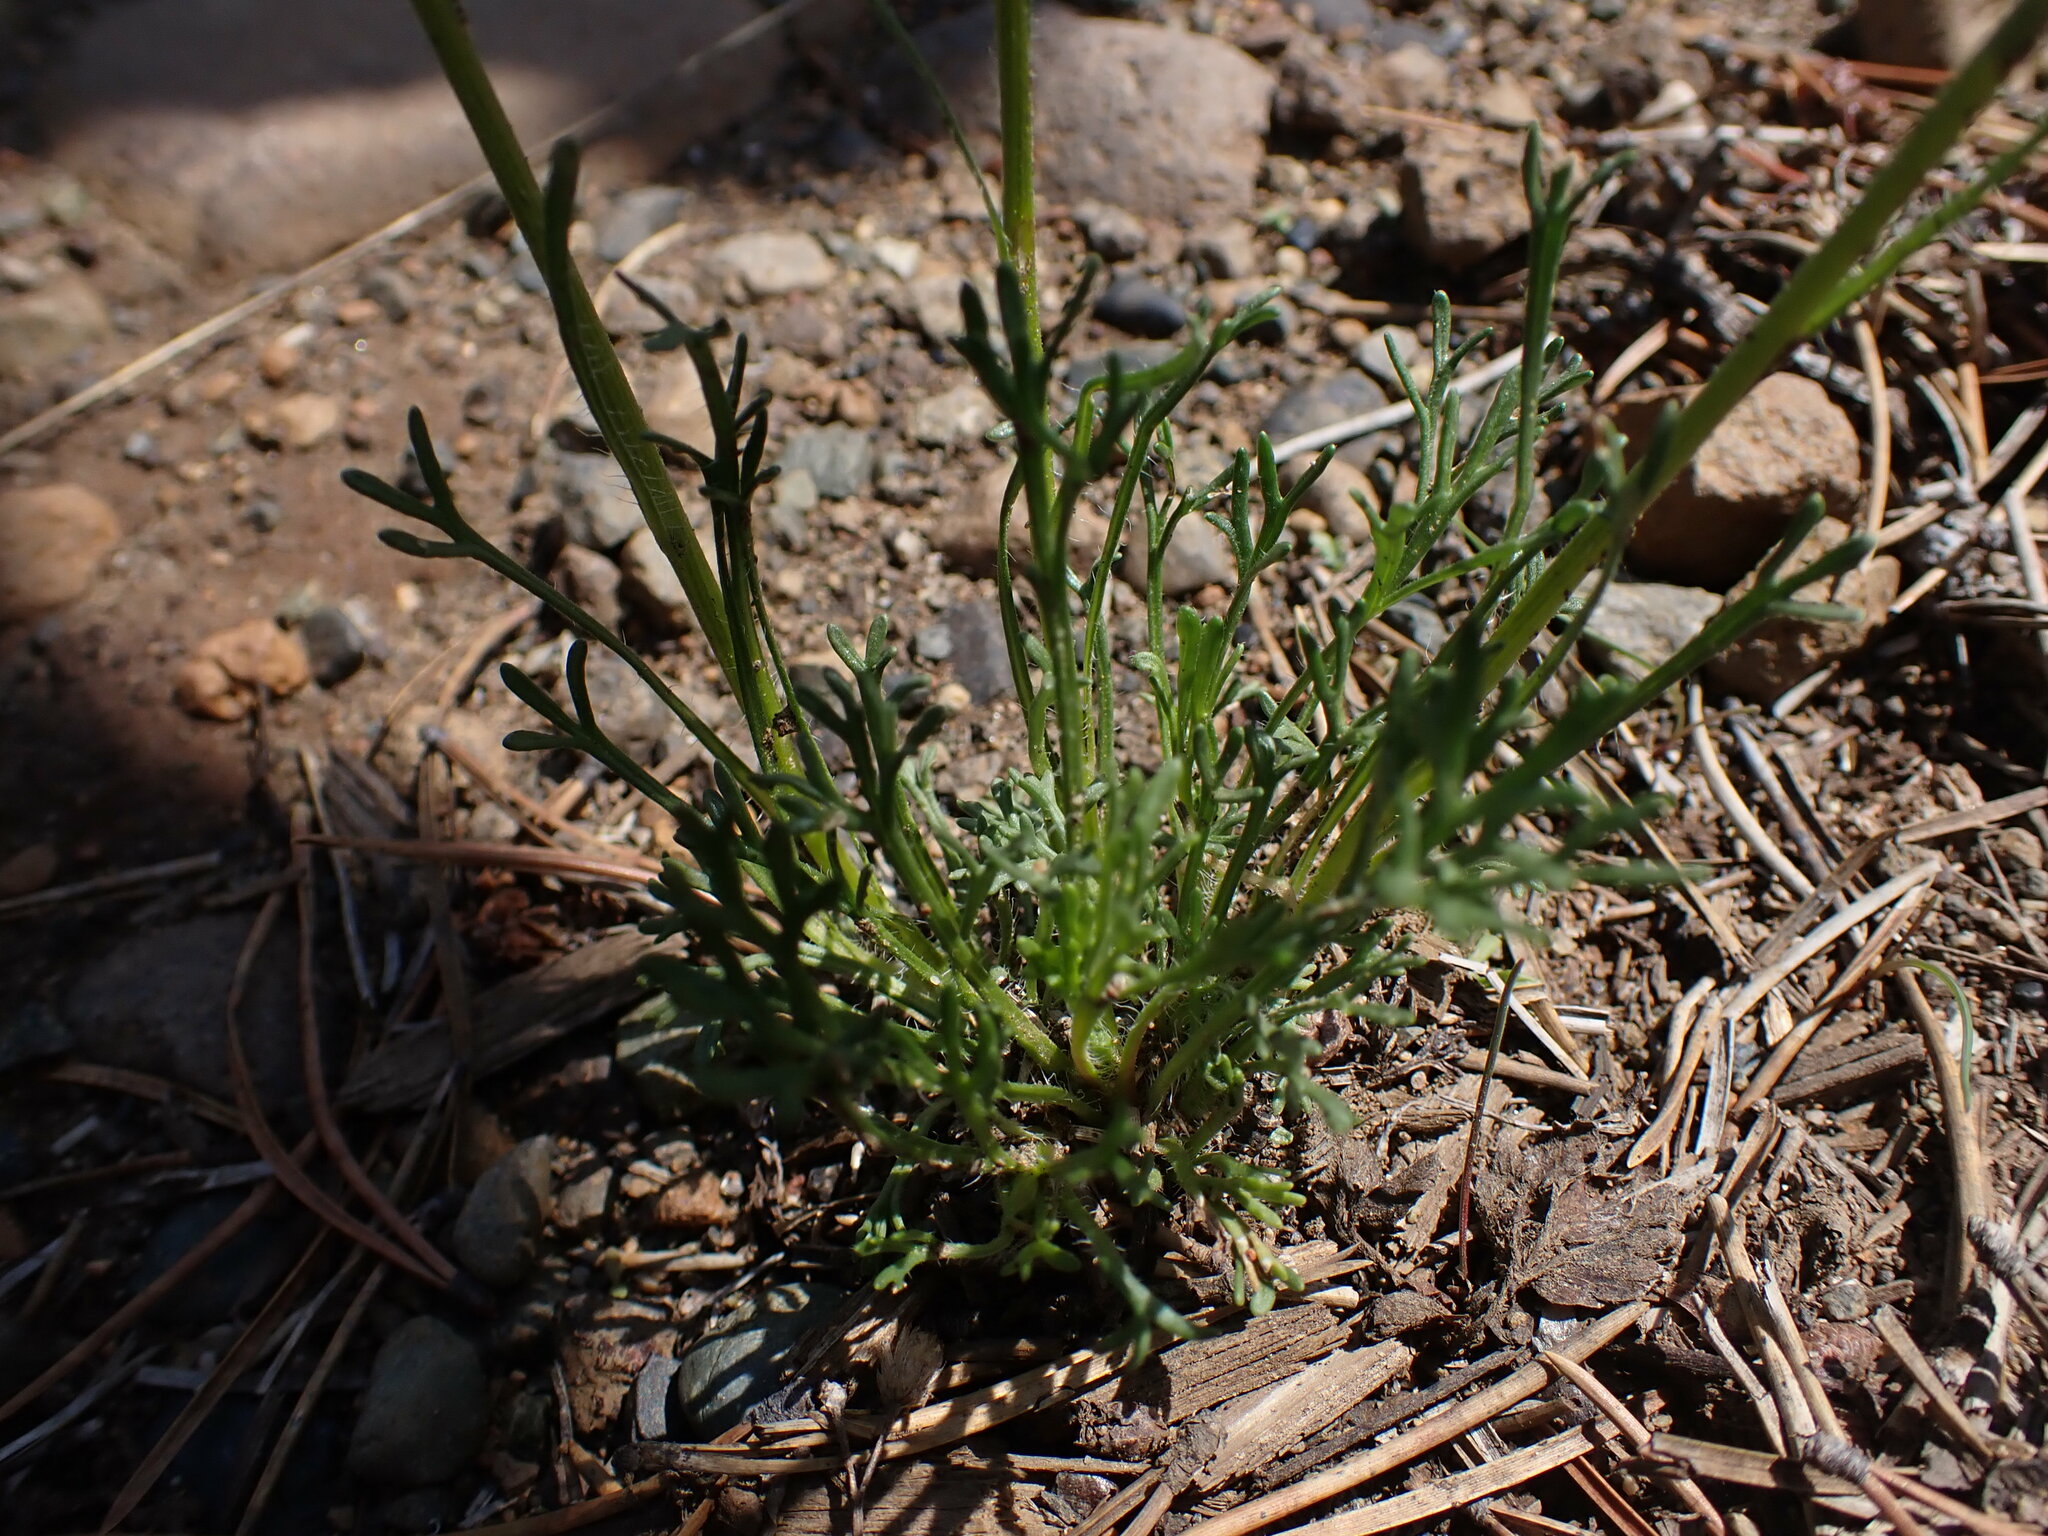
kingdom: Plantae
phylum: Tracheophyta
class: Magnoliopsida
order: Asterales
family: Asteraceae
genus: Erigeron
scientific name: Erigeron compositus
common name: Dwarf mountain fleabane
